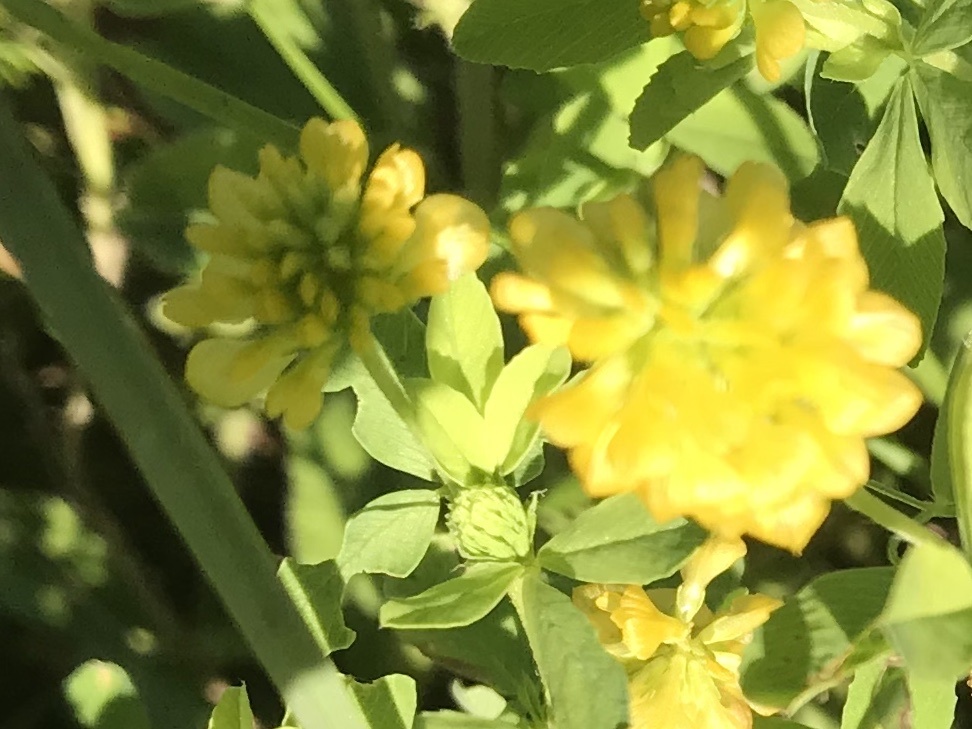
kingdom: Plantae
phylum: Tracheophyta
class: Magnoliopsida
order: Fabales
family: Fabaceae
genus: Trifolium
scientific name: Trifolium aureum
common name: Golden clover
